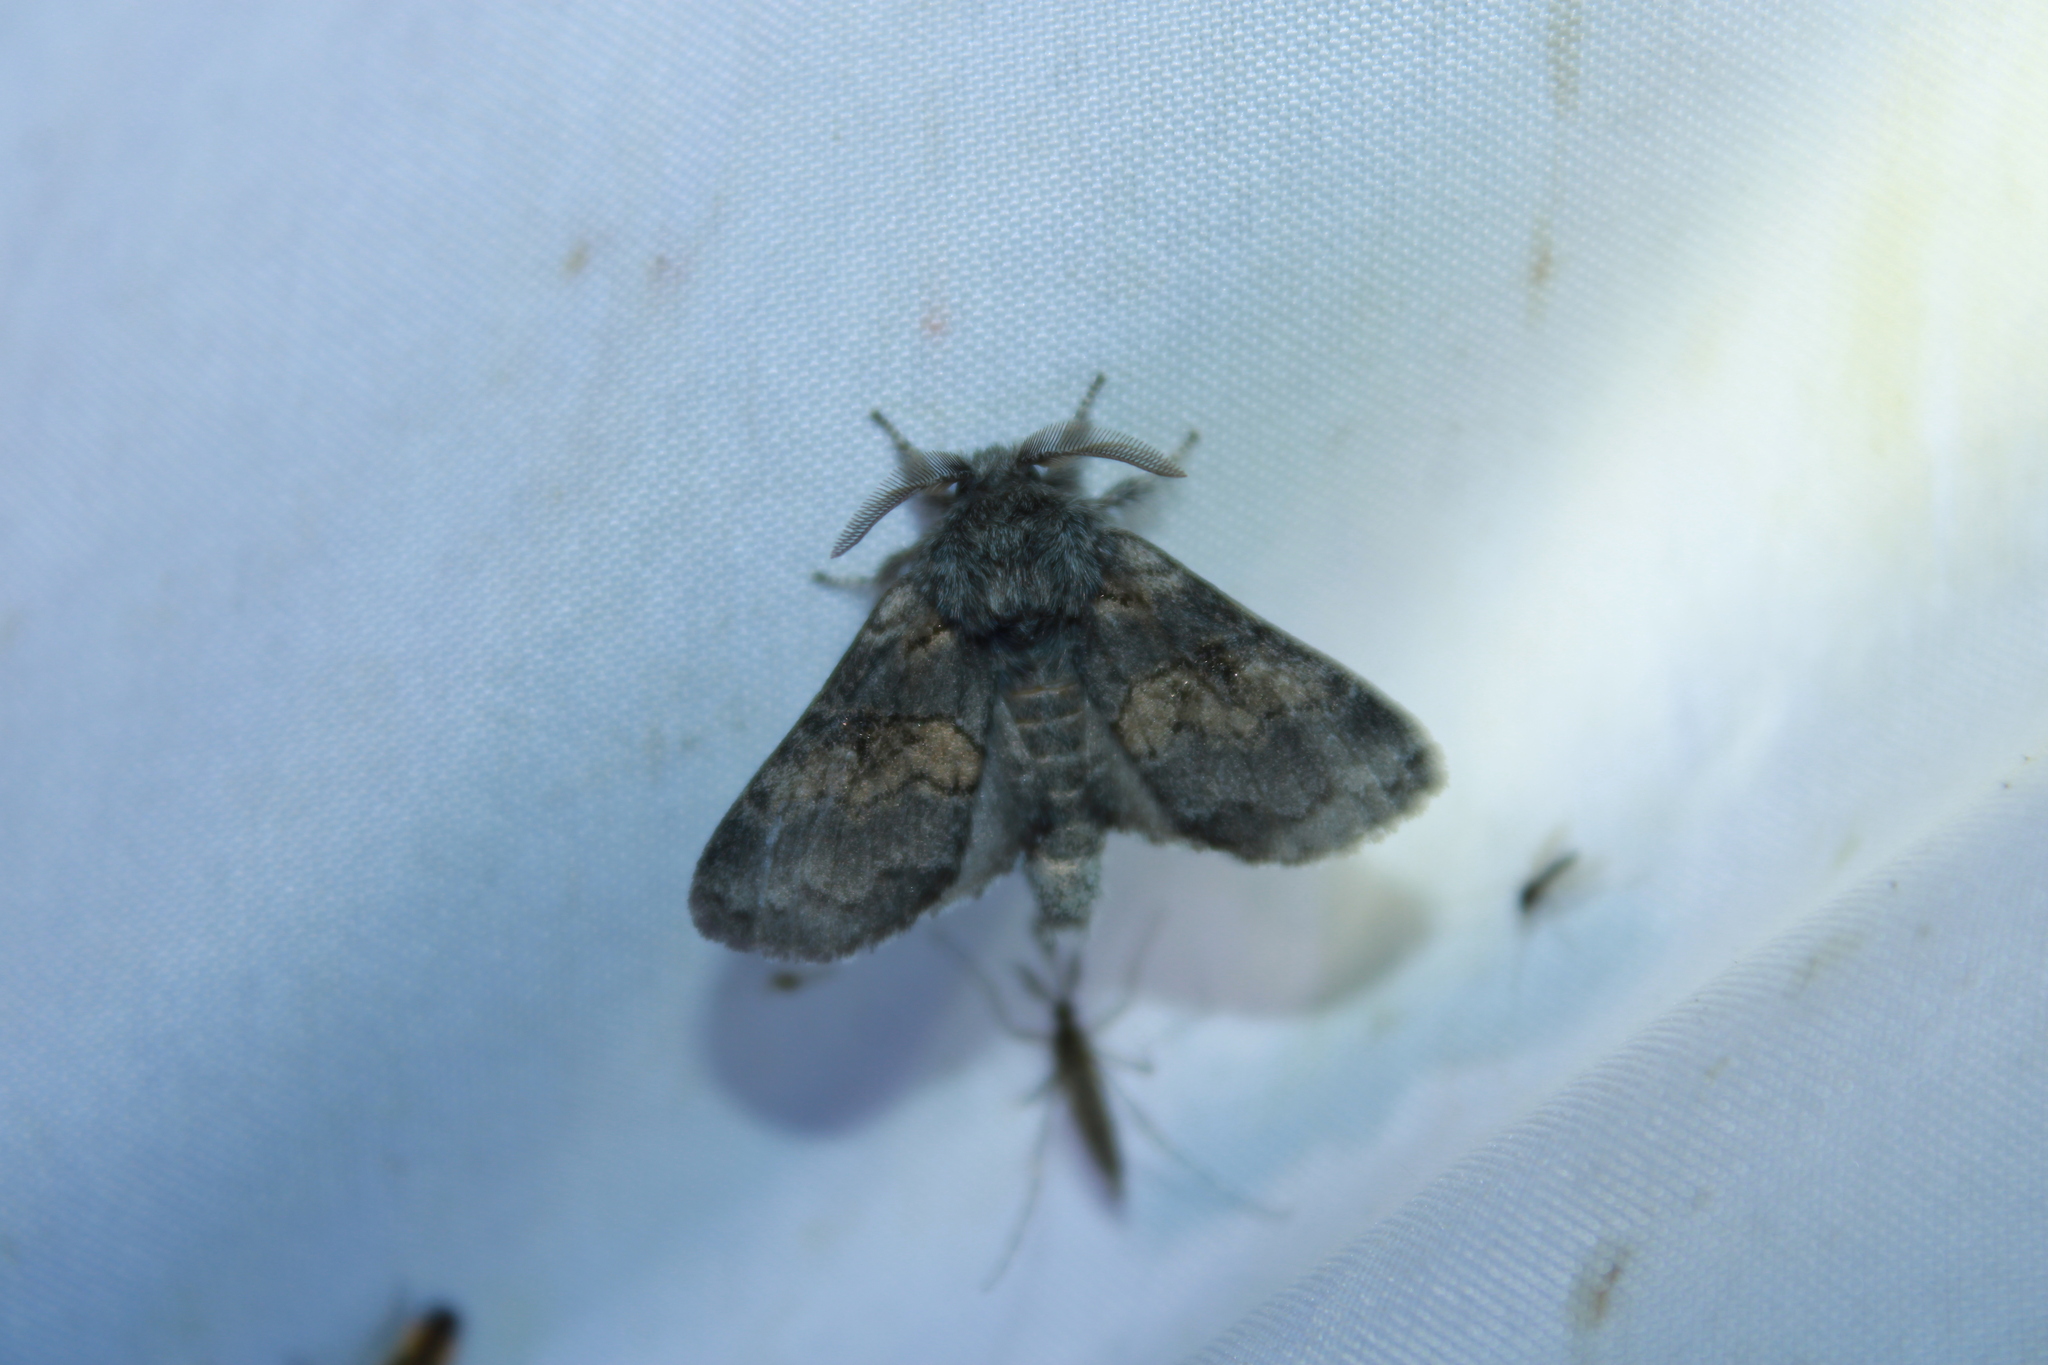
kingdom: Animalia
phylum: Arthropoda
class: Insecta
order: Lepidoptera
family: Notodontidae
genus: Gluphisia
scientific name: Gluphisia septentrionis
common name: Common gluphisia
